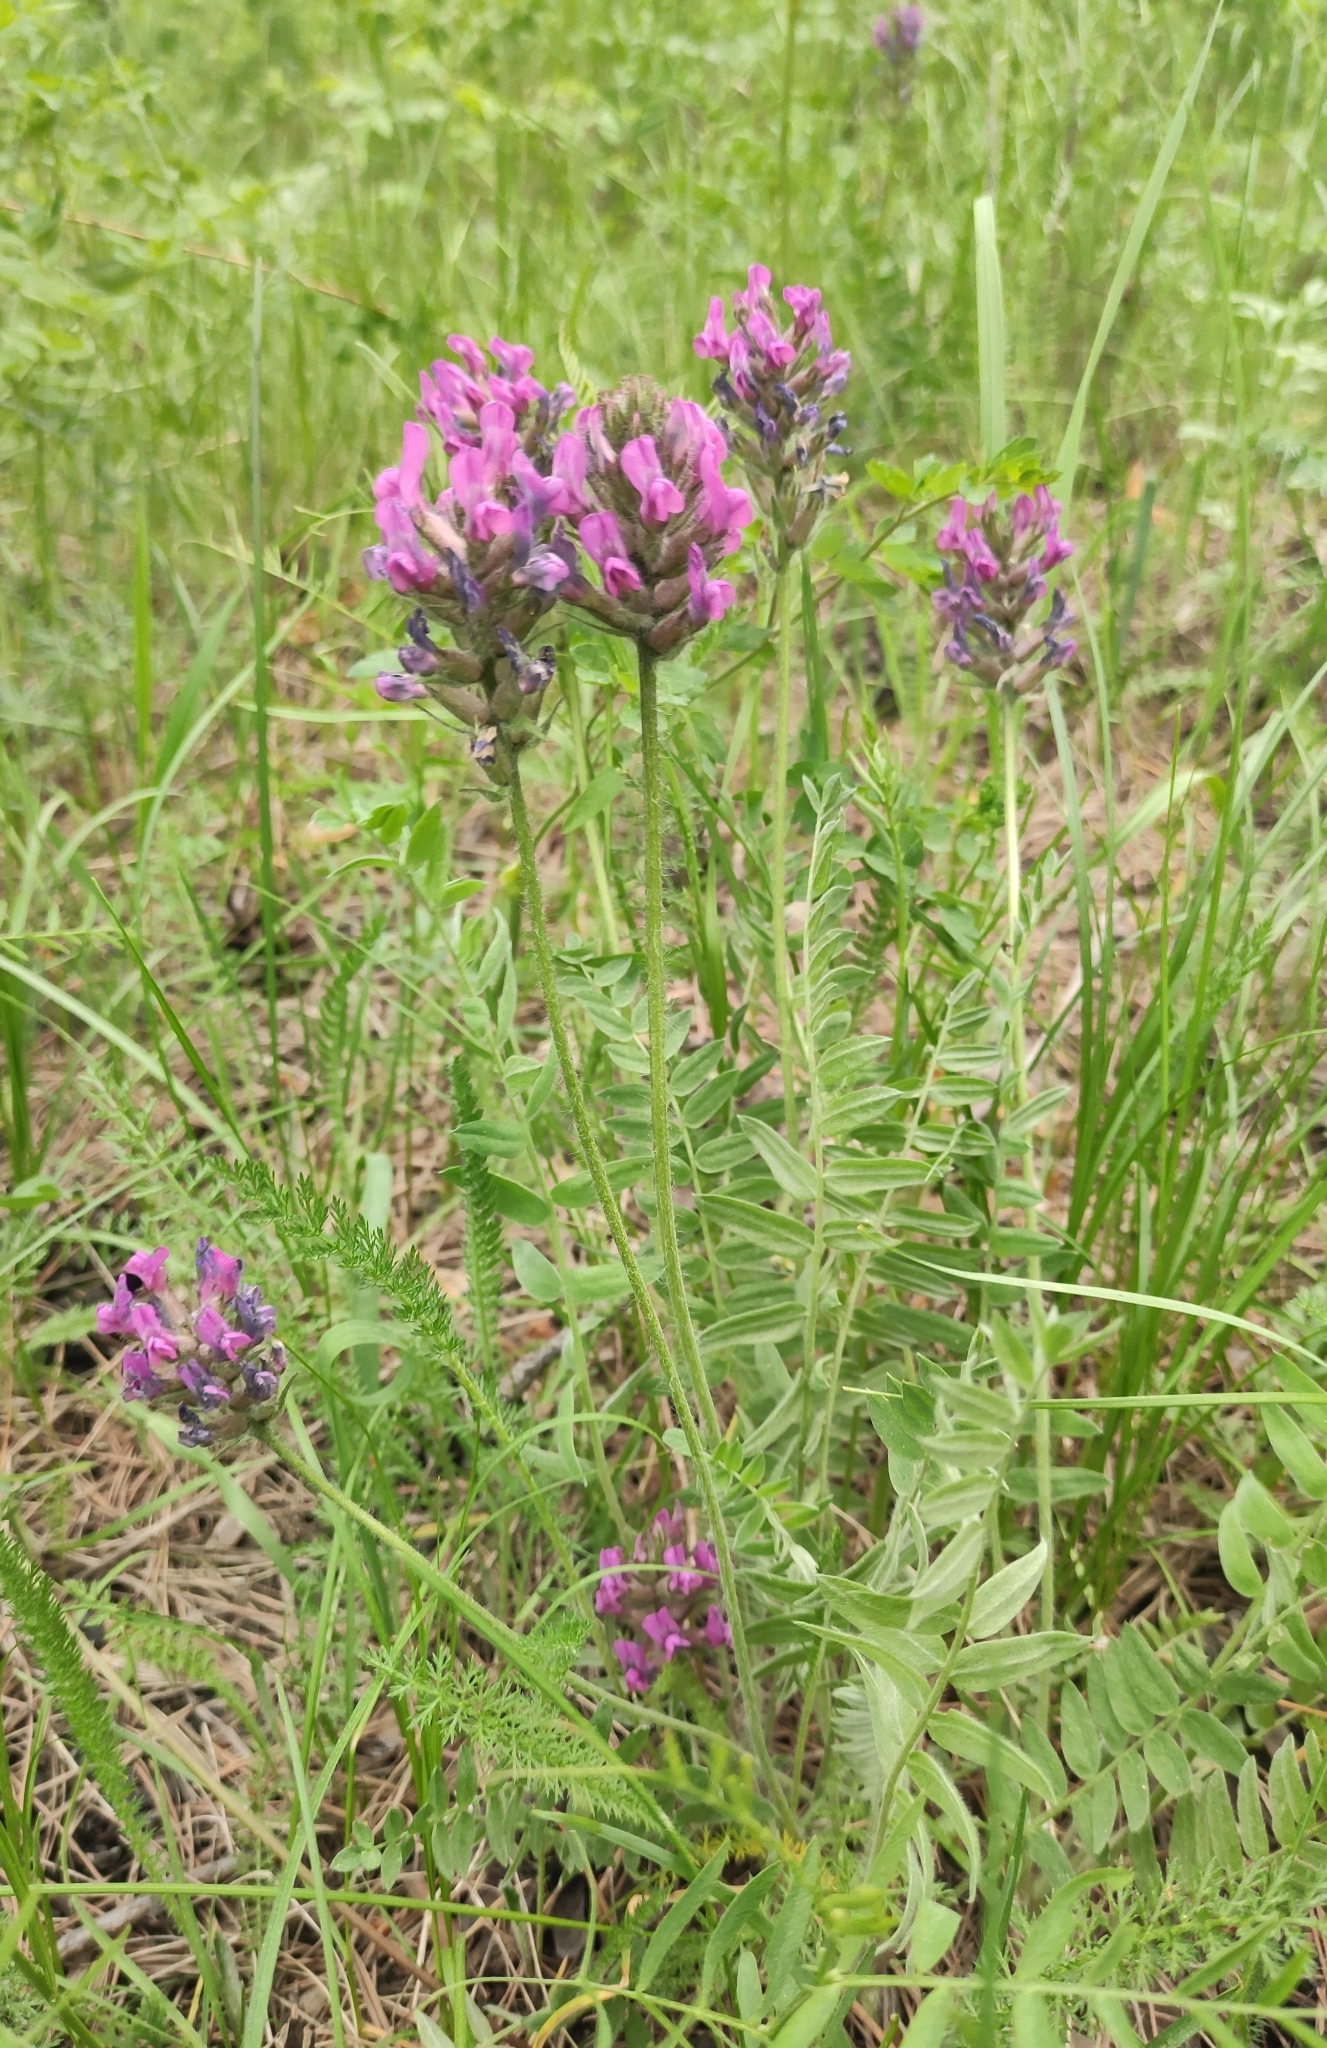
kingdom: Plantae
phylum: Tracheophyta
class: Magnoliopsida
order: Fabales
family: Fabaceae
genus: Oxytropis
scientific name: Oxytropis strobilacea
